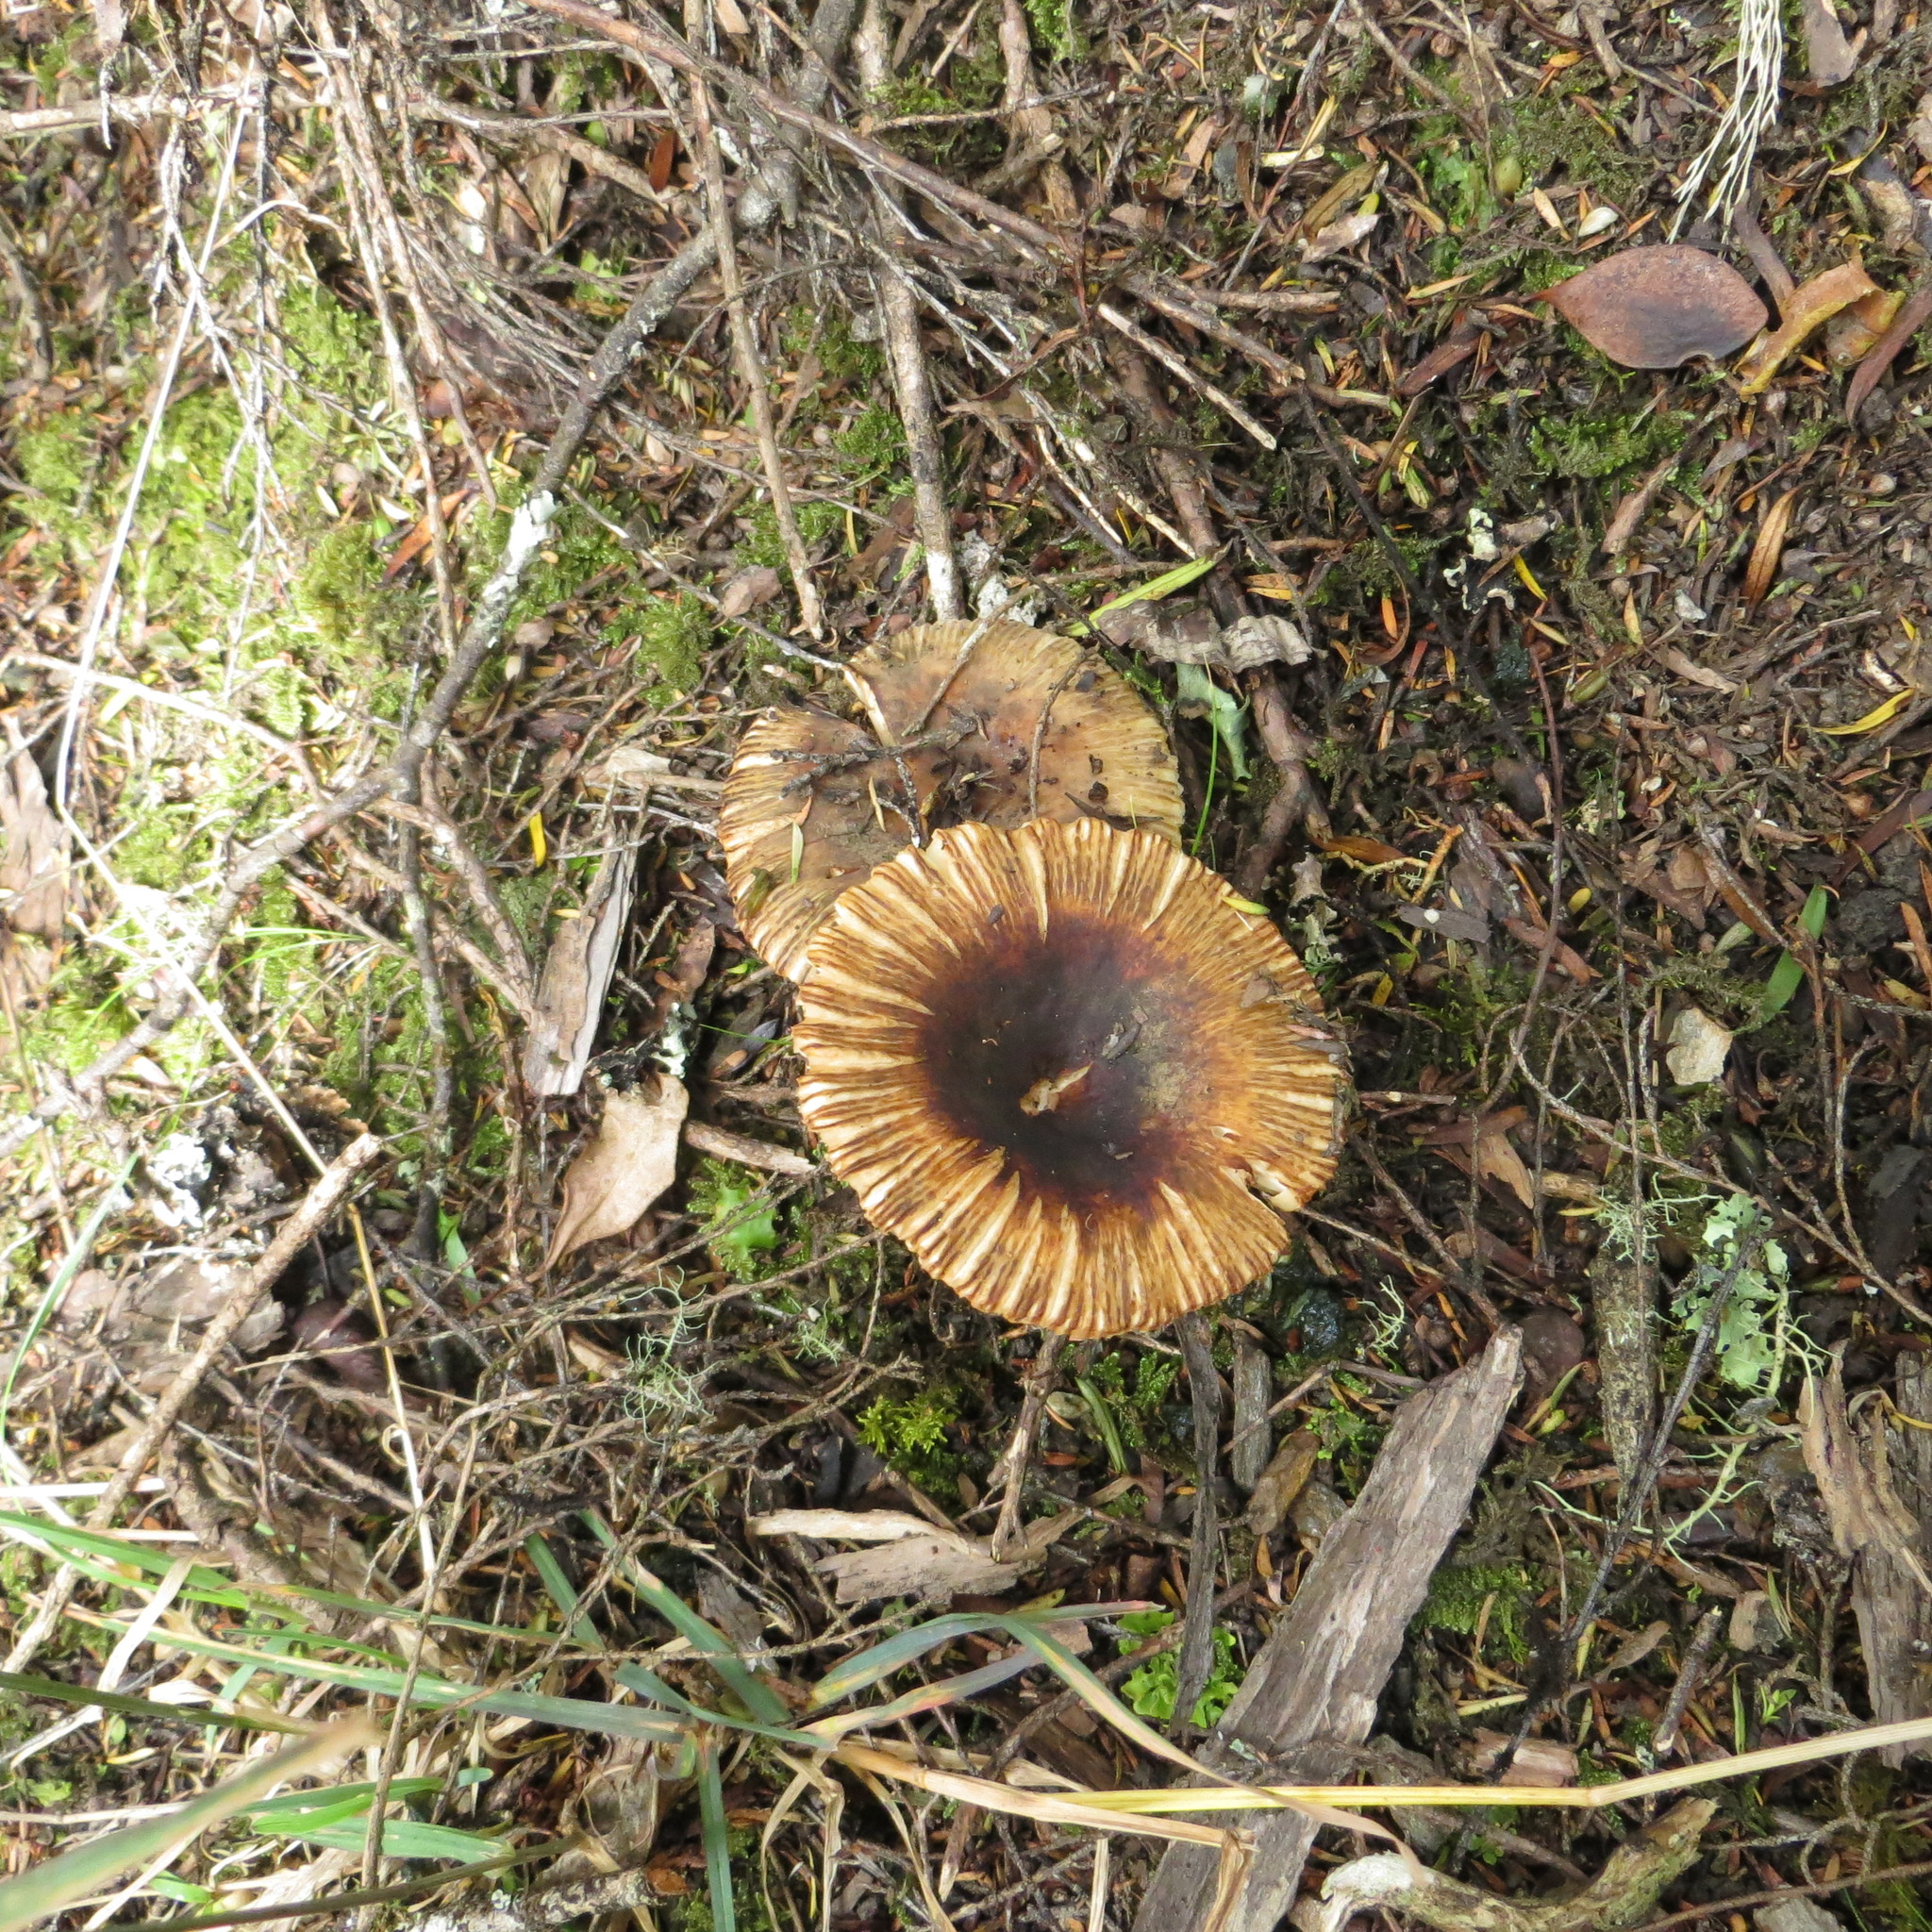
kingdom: Fungi
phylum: Basidiomycota
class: Agaricomycetes
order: Russulales
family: Russulaceae
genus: Russula
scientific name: Russula acrolamellata
